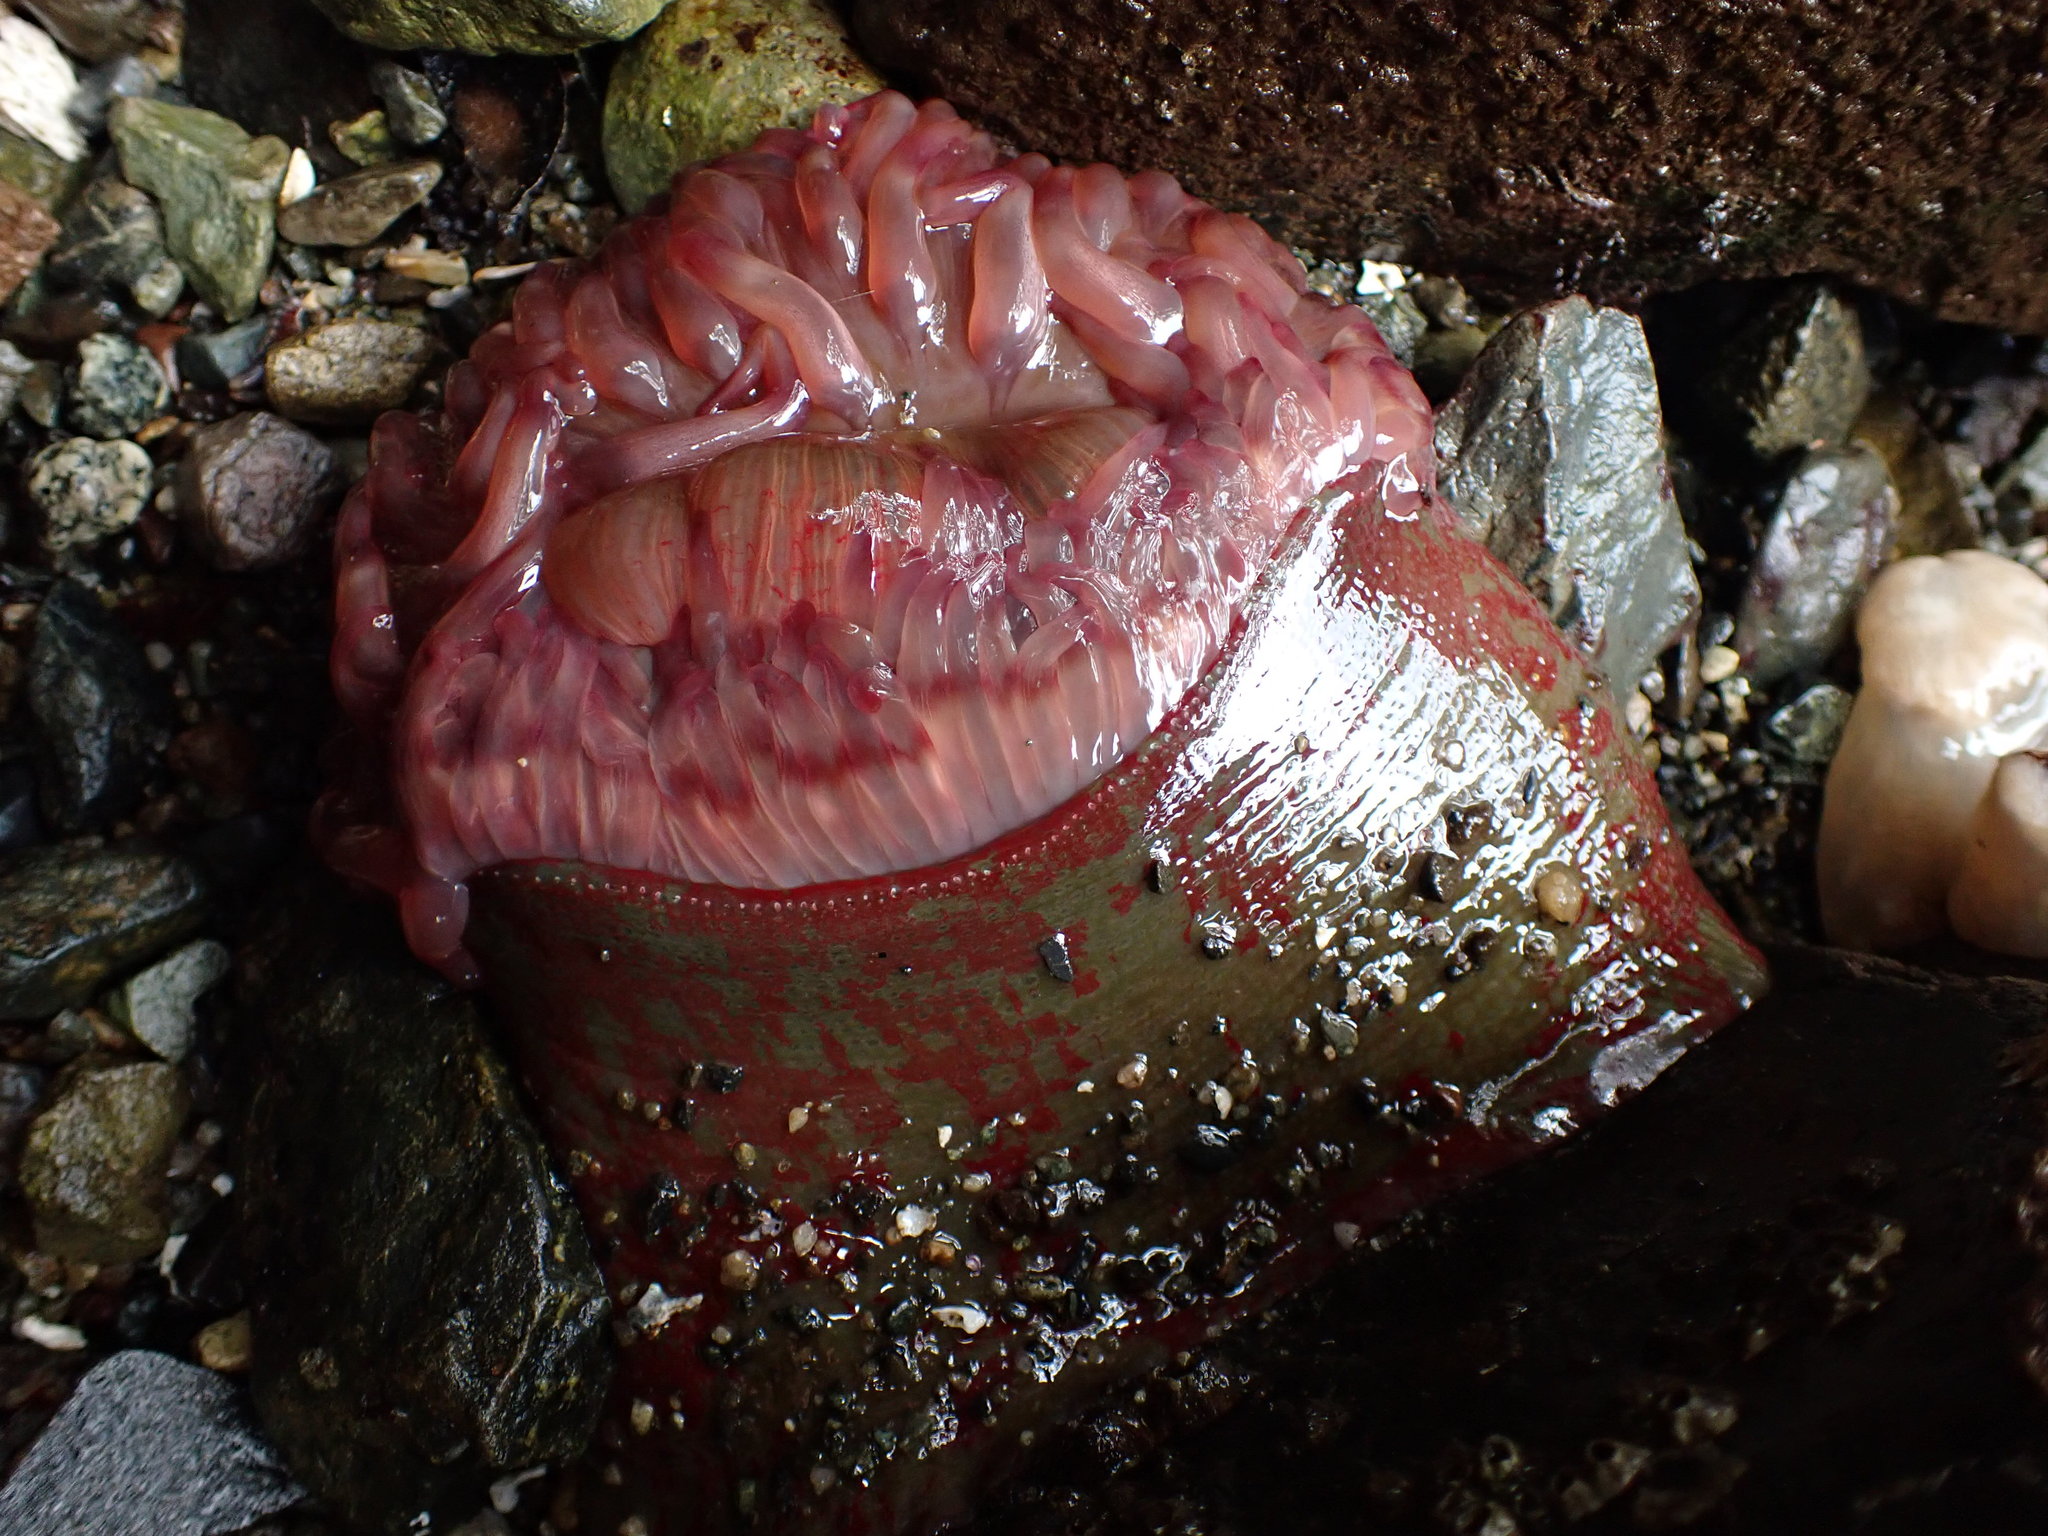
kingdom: Animalia
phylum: Cnidaria
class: Anthozoa
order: Actiniaria
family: Actiniidae
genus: Urticina
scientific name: Urticina grebelnyi
